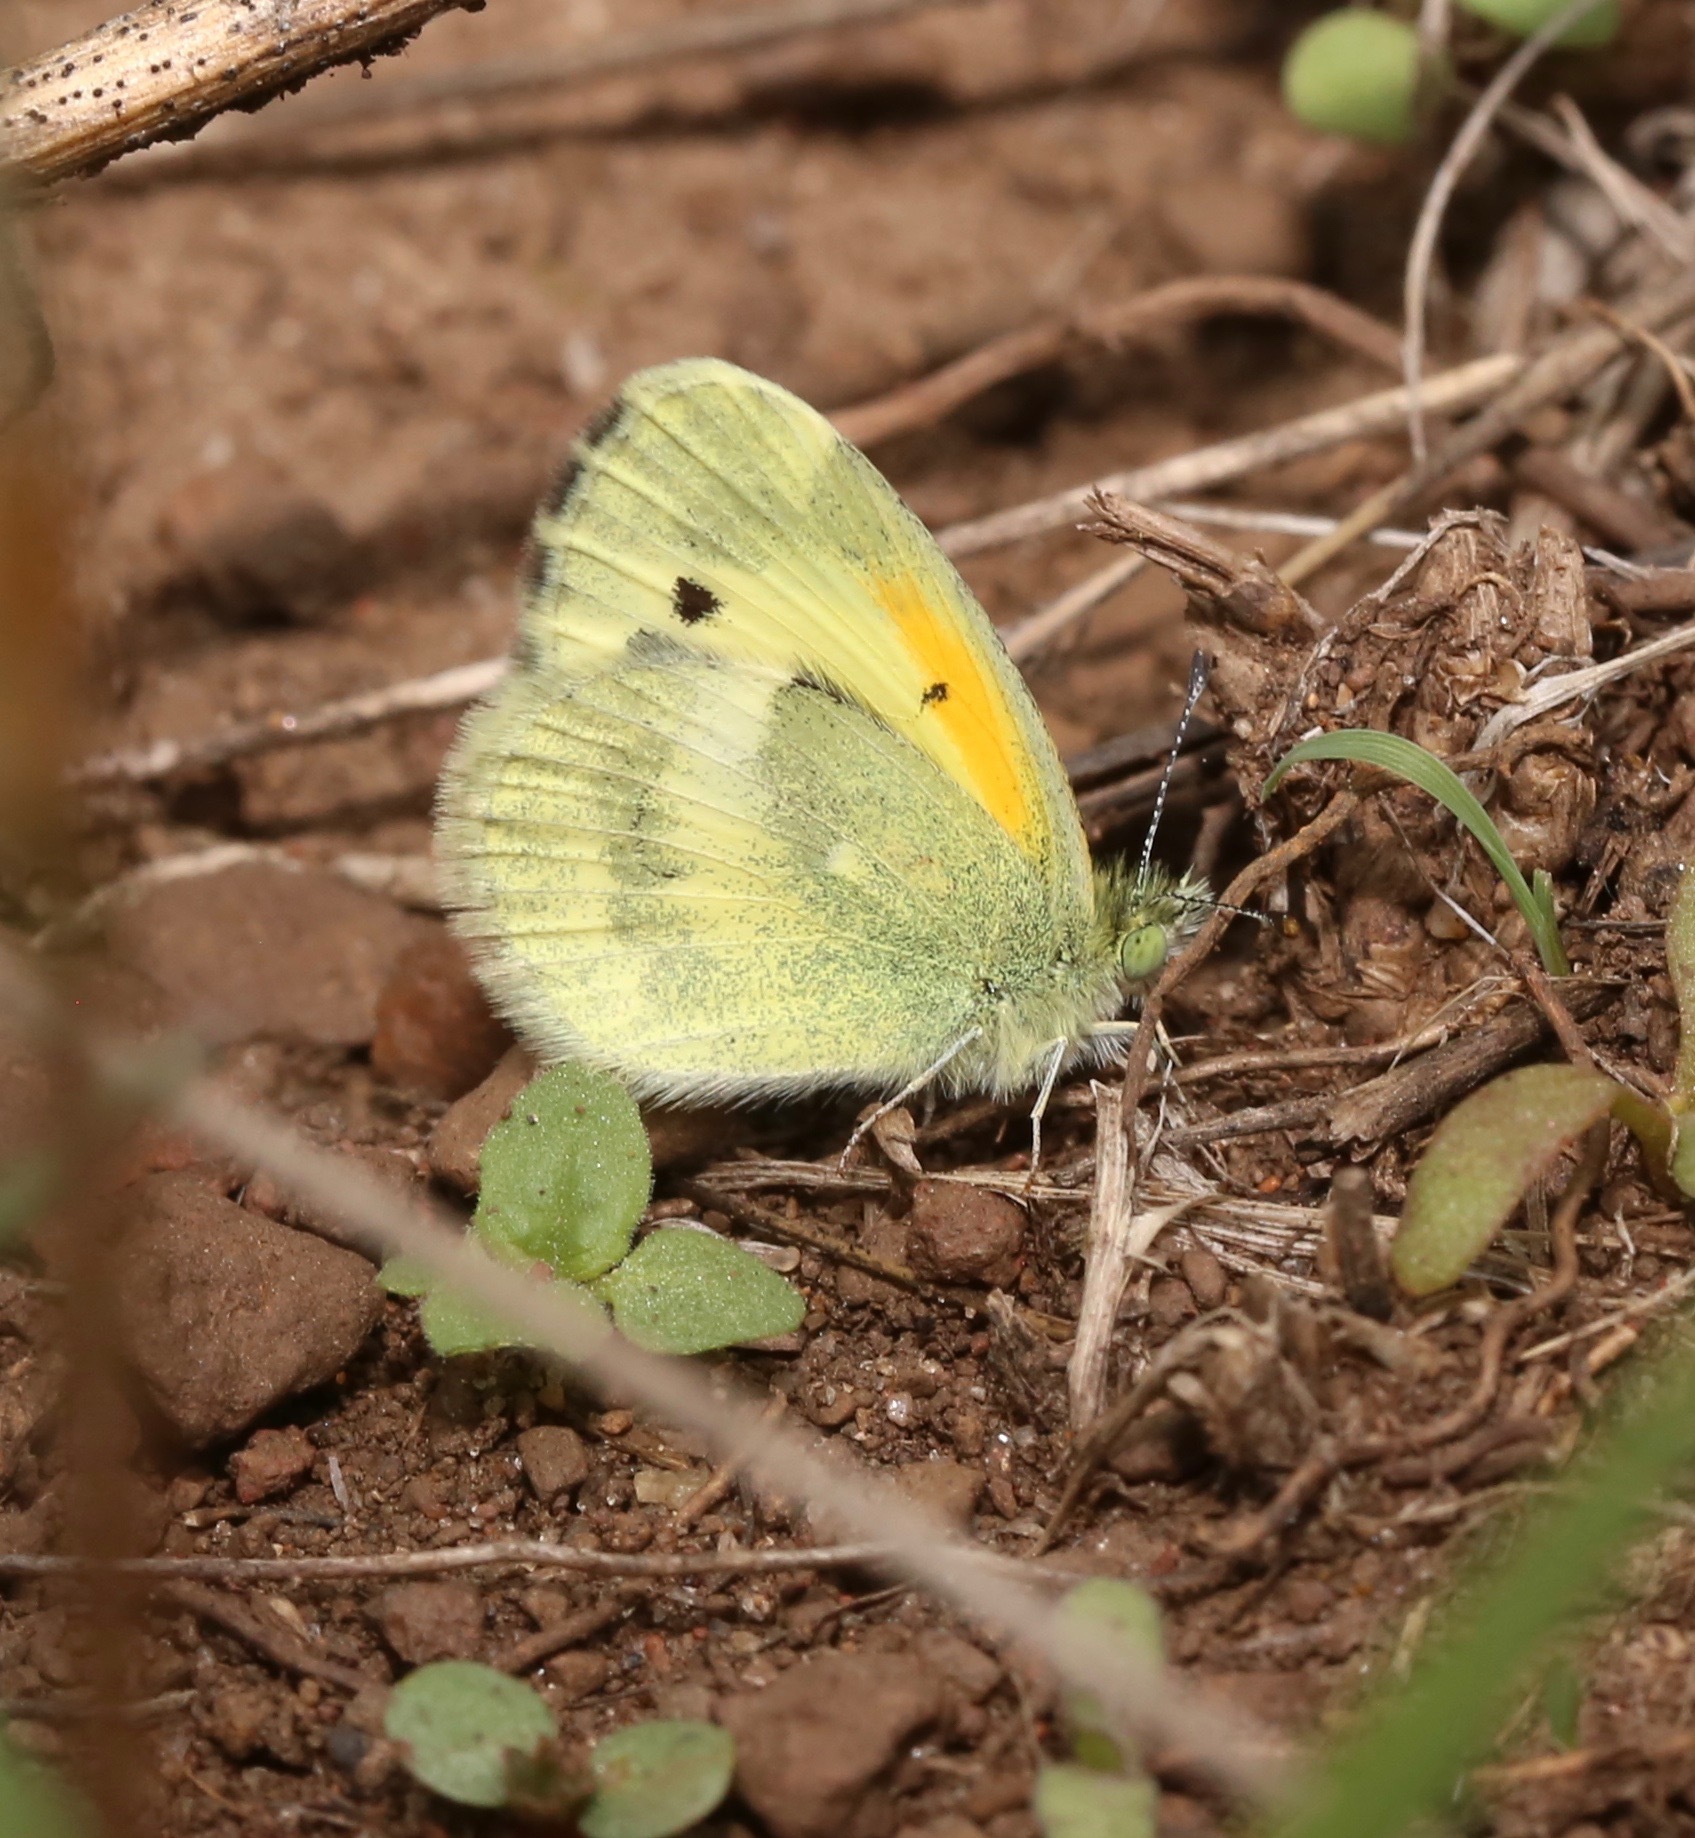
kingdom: Animalia
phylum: Arthropoda
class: Insecta
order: Lepidoptera
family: Pieridae
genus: Nathalis
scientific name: Nathalis iole
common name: Dainty sulphur
